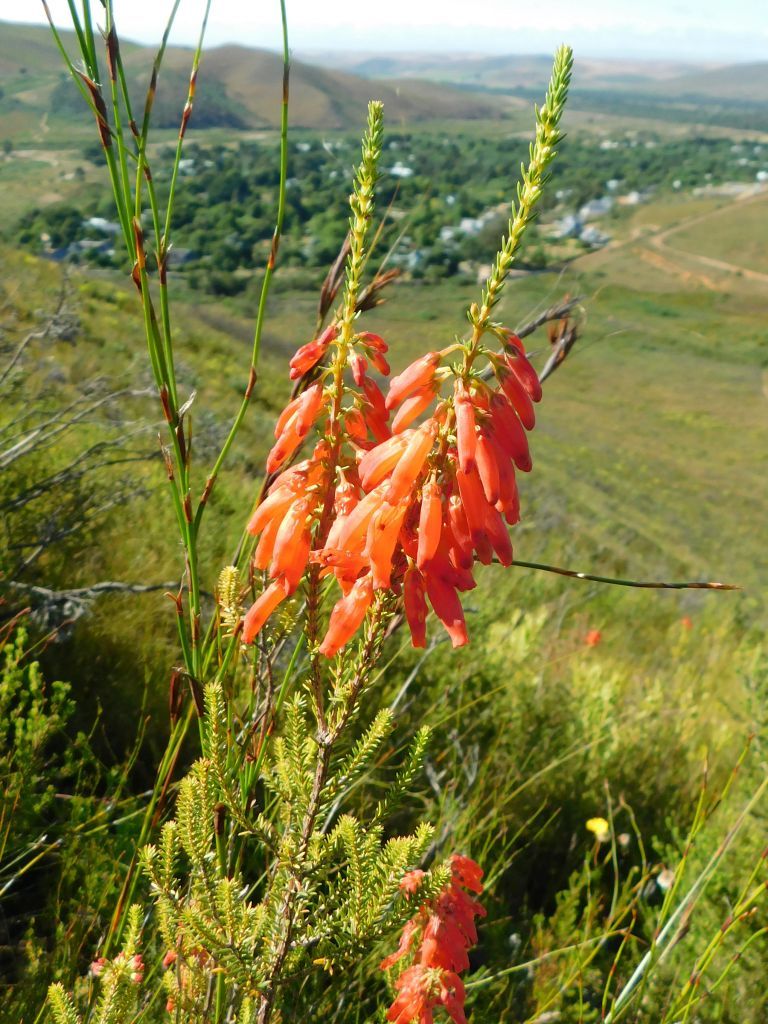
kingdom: Plantae
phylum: Tracheophyta
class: Magnoliopsida
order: Ericales
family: Ericaceae
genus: Erica
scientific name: Erica mammosa
